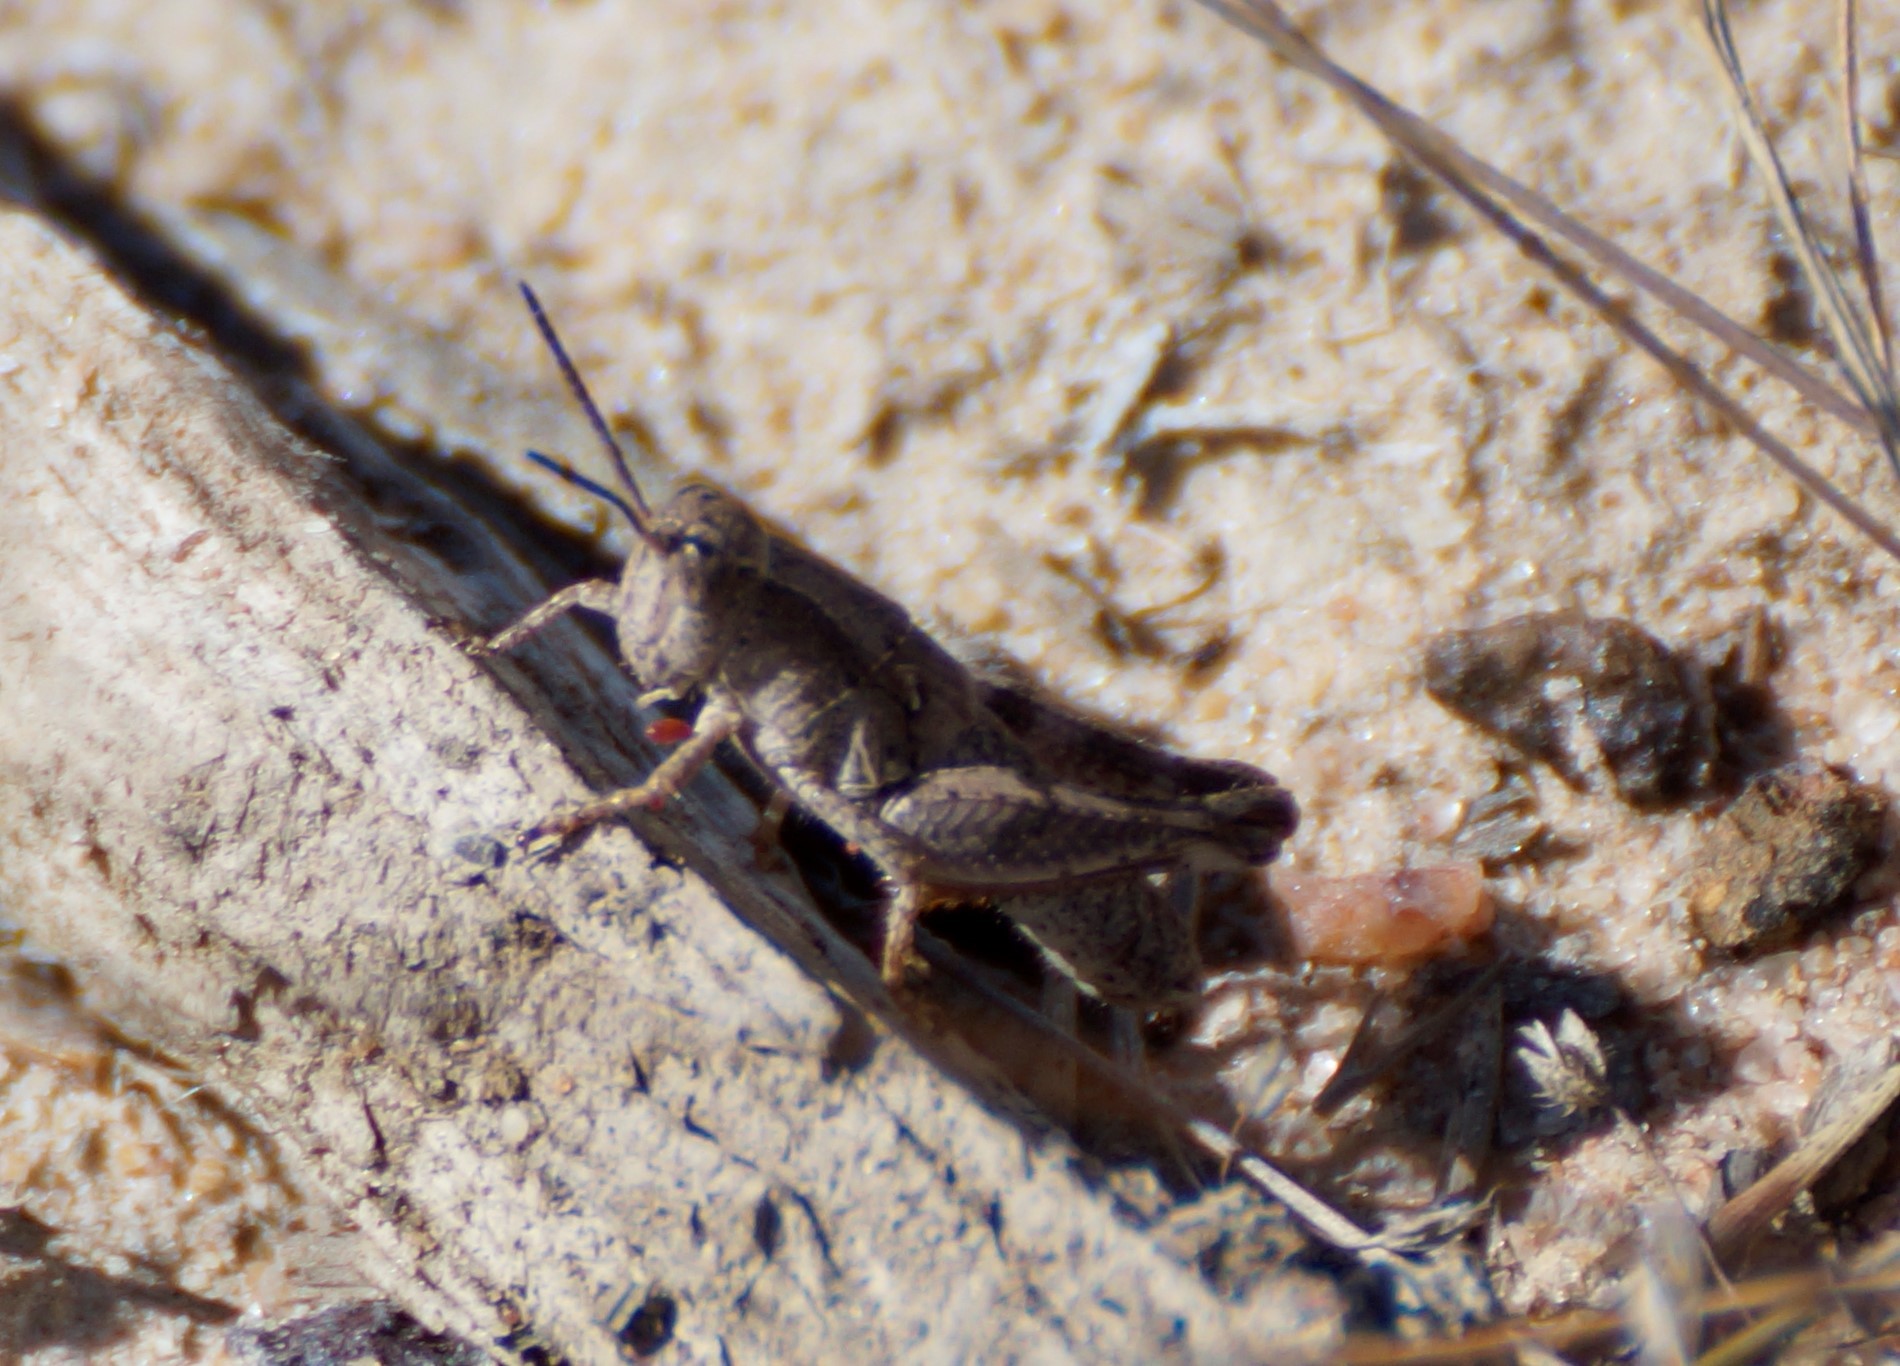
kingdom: Animalia
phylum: Arthropoda
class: Insecta
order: Orthoptera
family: Acrididae
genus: Phaulacridium
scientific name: Phaulacridium vittatum
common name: Wingless grasshopper
